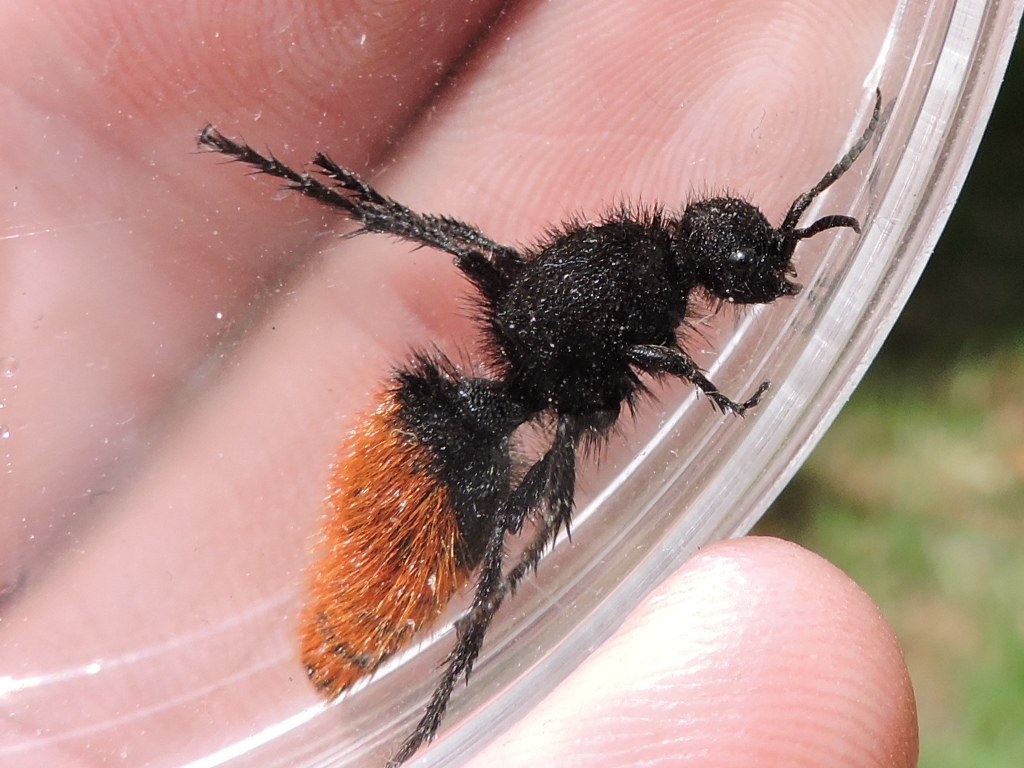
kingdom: Animalia
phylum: Arthropoda
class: Insecta
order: Hymenoptera
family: Mutillidae
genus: Dasymutilla
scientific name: Dasymutilla
